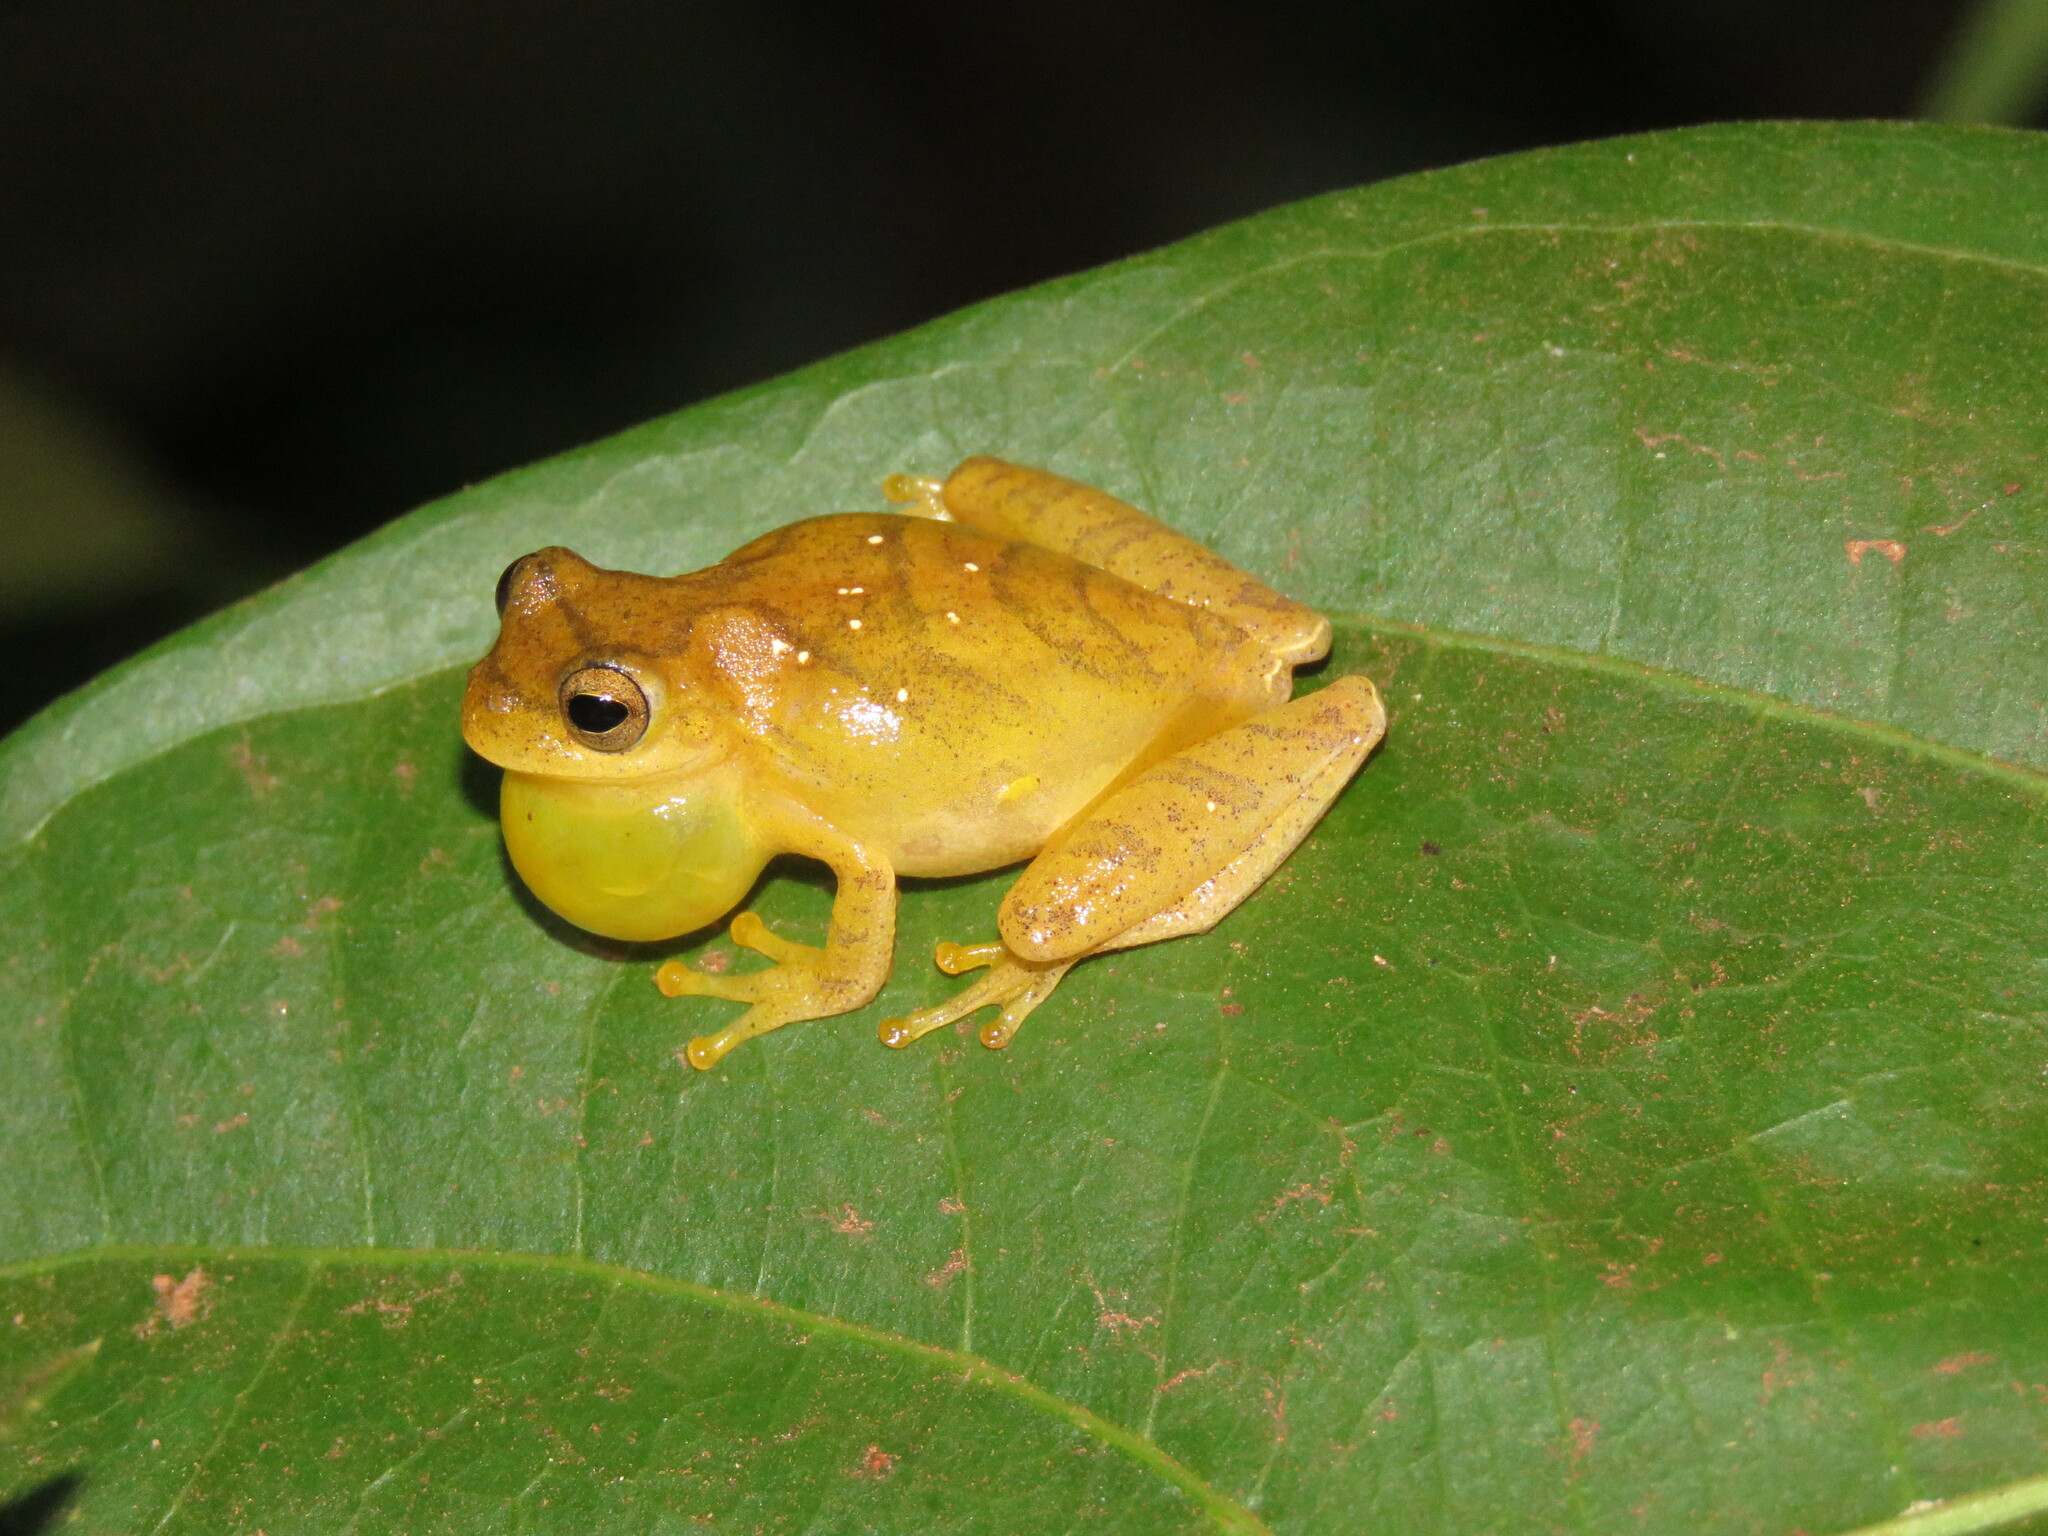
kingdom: Animalia
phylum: Chordata
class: Amphibia
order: Anura
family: Hylidae
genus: Dendropsophus
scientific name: Dendropsophus minutus
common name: Lesser treefrog
